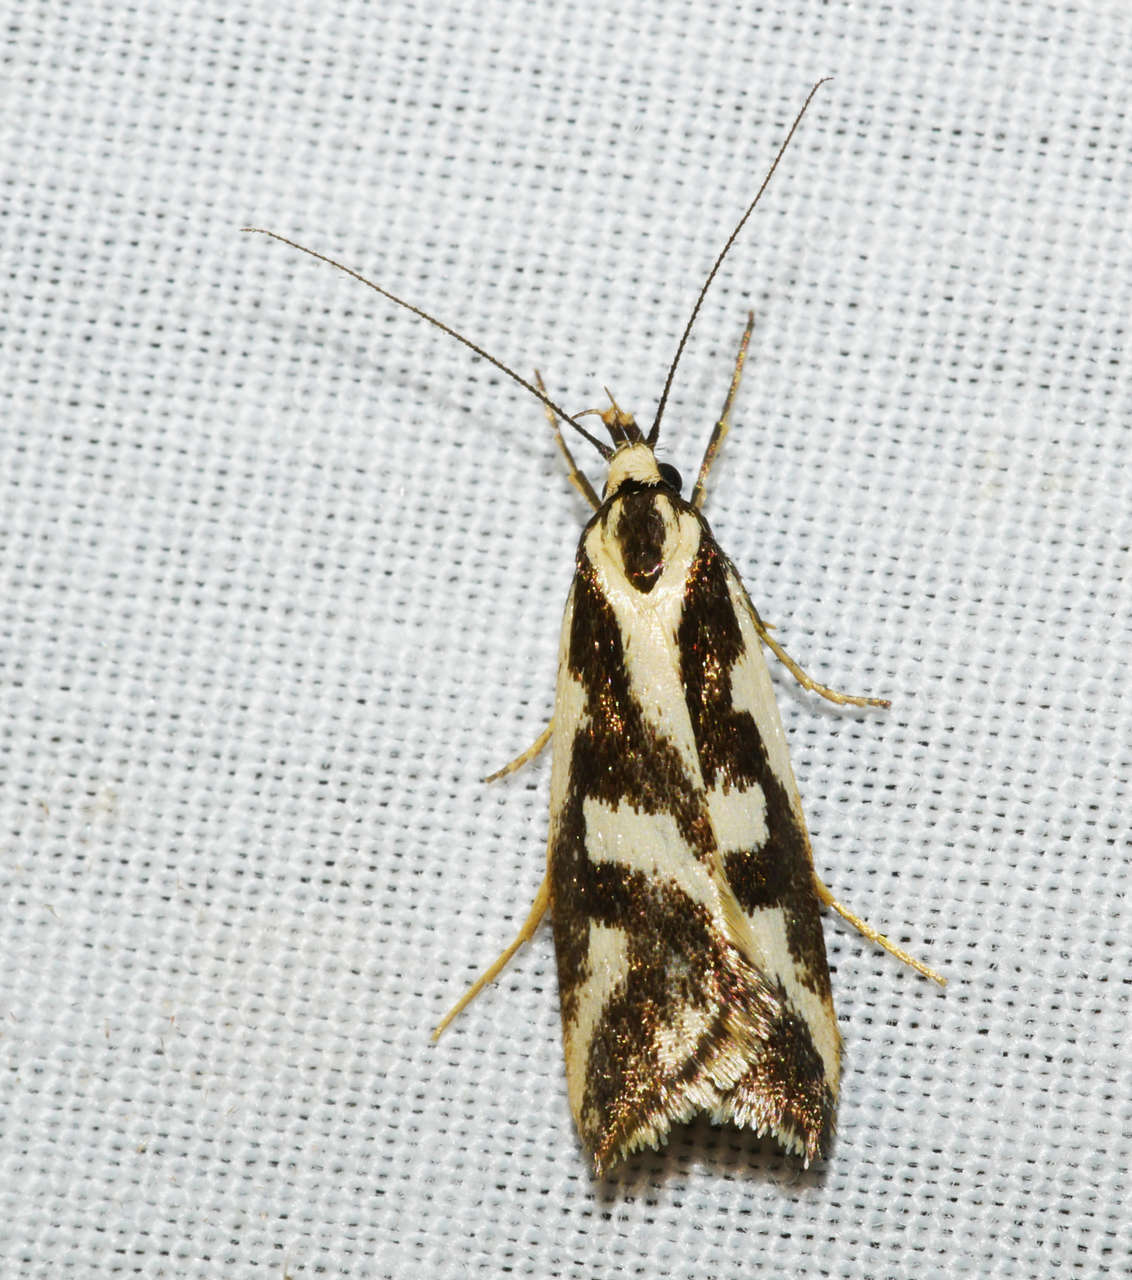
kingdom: Animalia
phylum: Arthropoda
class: Insecta
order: Lepidoptera
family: Oecophoridae
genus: Epithymema
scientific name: Epithymema incomposita
